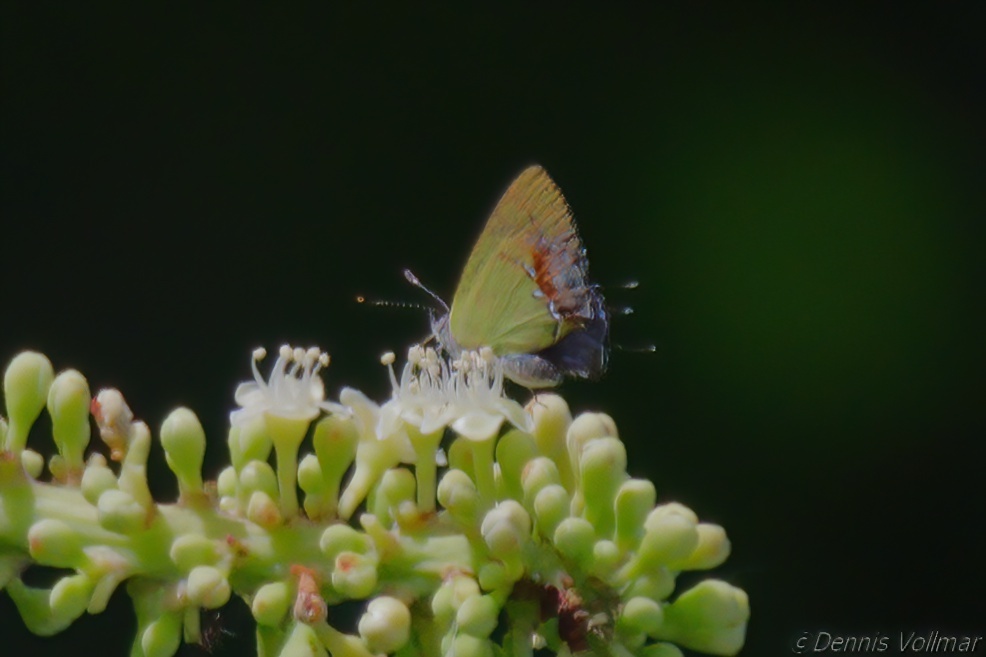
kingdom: Animalia
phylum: Arthropoda
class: Insecta
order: Lepidoptera
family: Lycaenidae
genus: Thecla
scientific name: Thecla maesites
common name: Verde azul hairstreak
